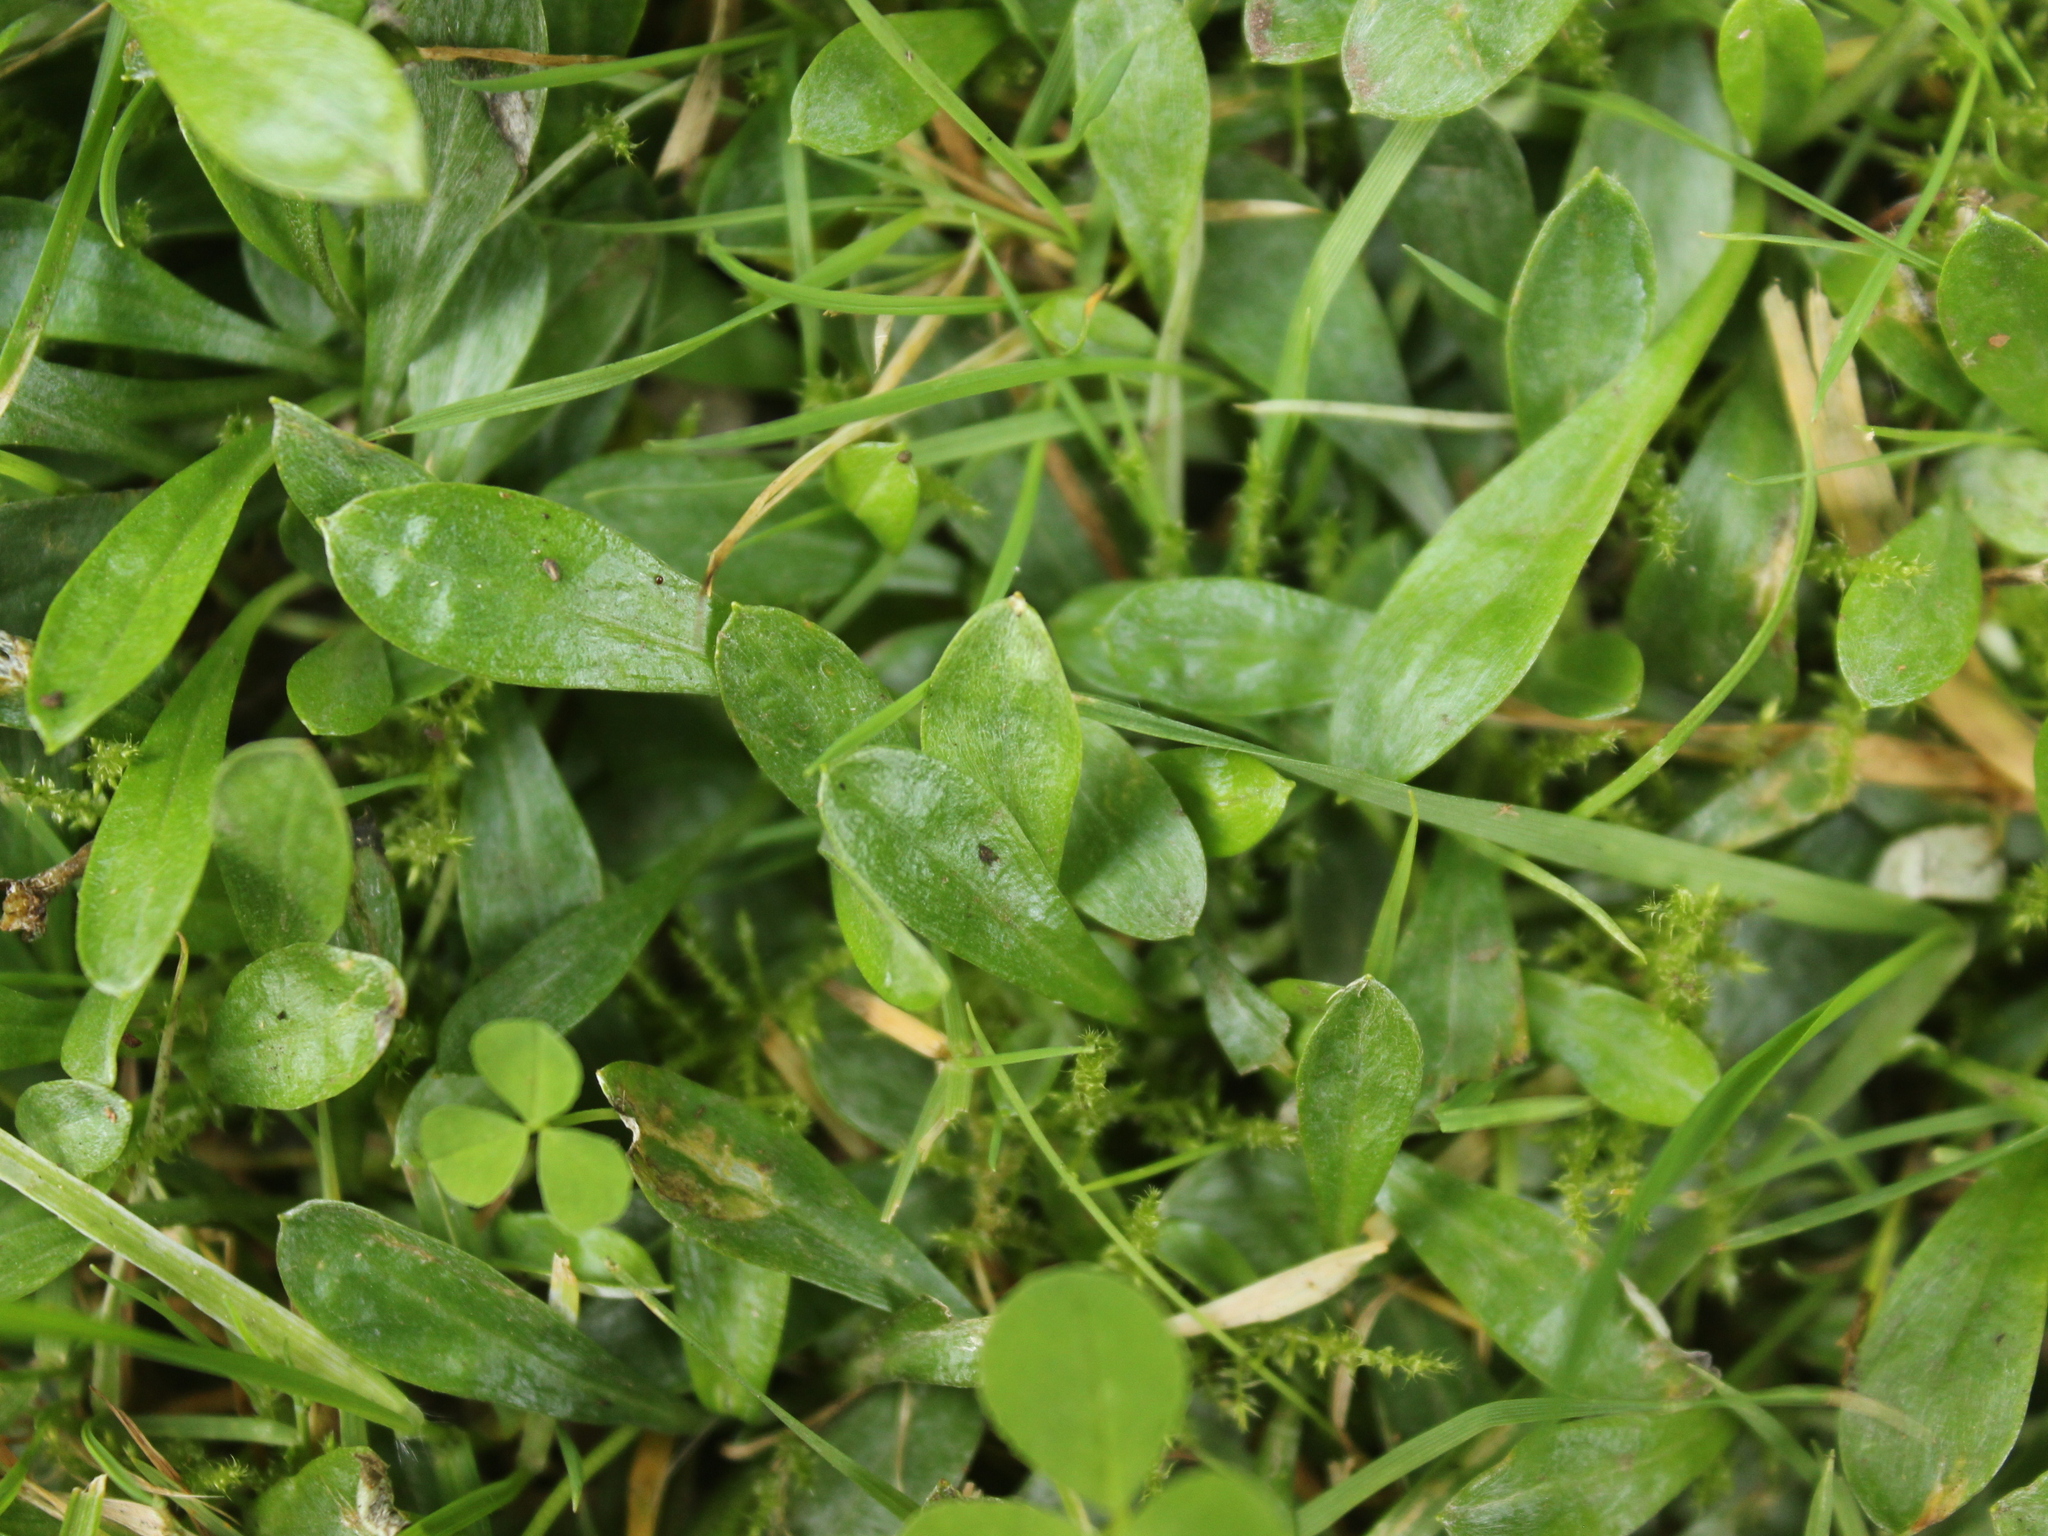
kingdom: Plantae
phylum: Tracheophyta
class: Magnoliopsida
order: Asterales
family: Asteraceae
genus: Euchiton
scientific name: Euchiton audax
